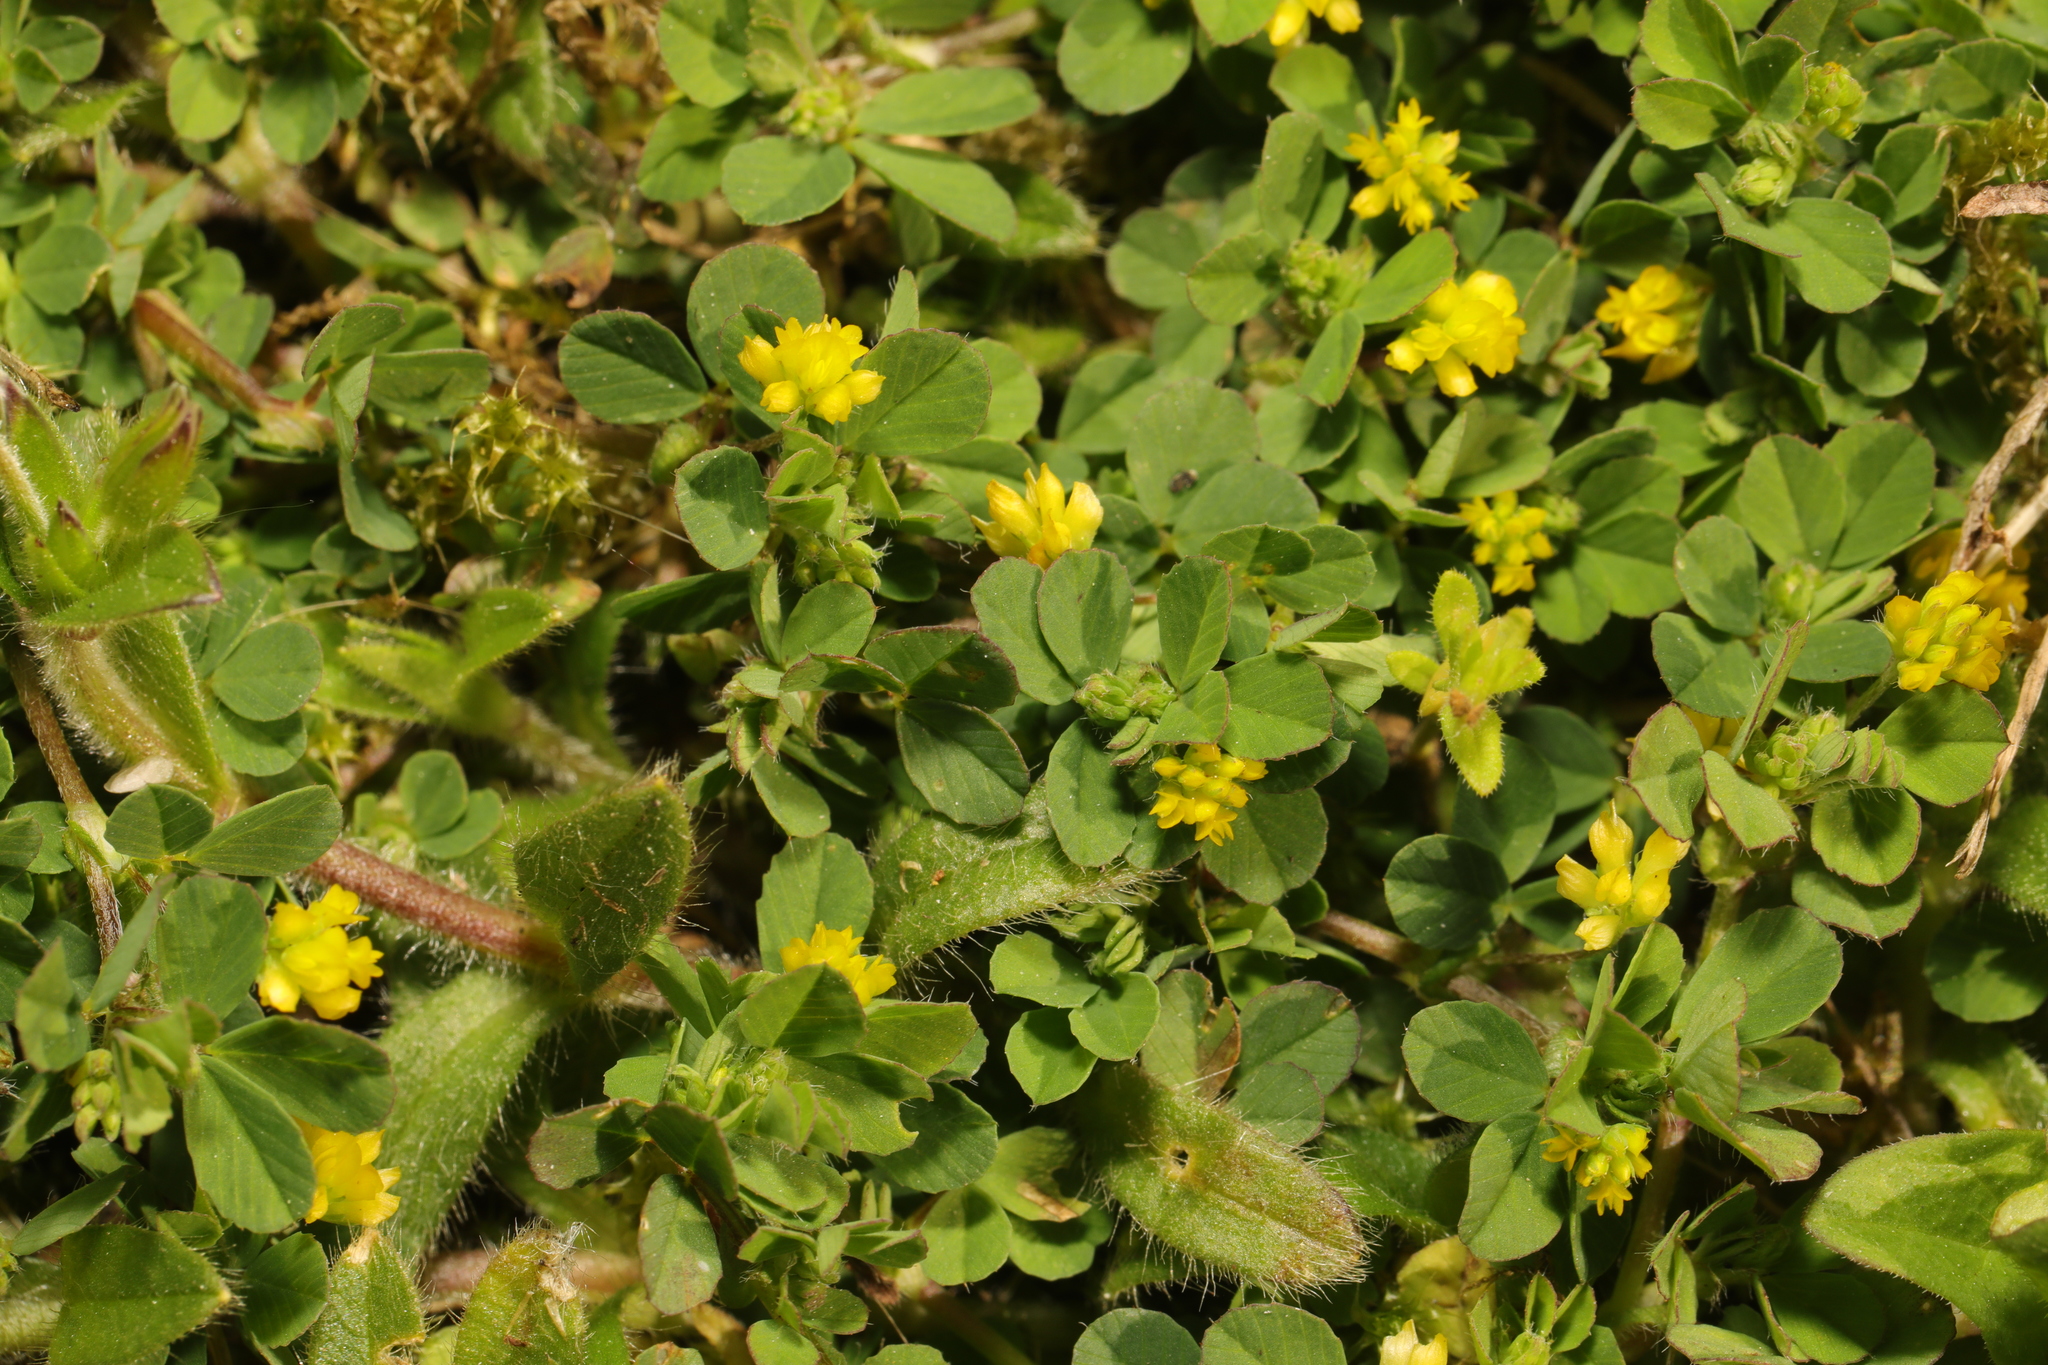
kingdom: Plantae
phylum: Tracheophyta
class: Magnoliopsida
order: Fabales
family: Fabaceae
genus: Trifolium
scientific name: Trifolium dubium
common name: Suckling clover
